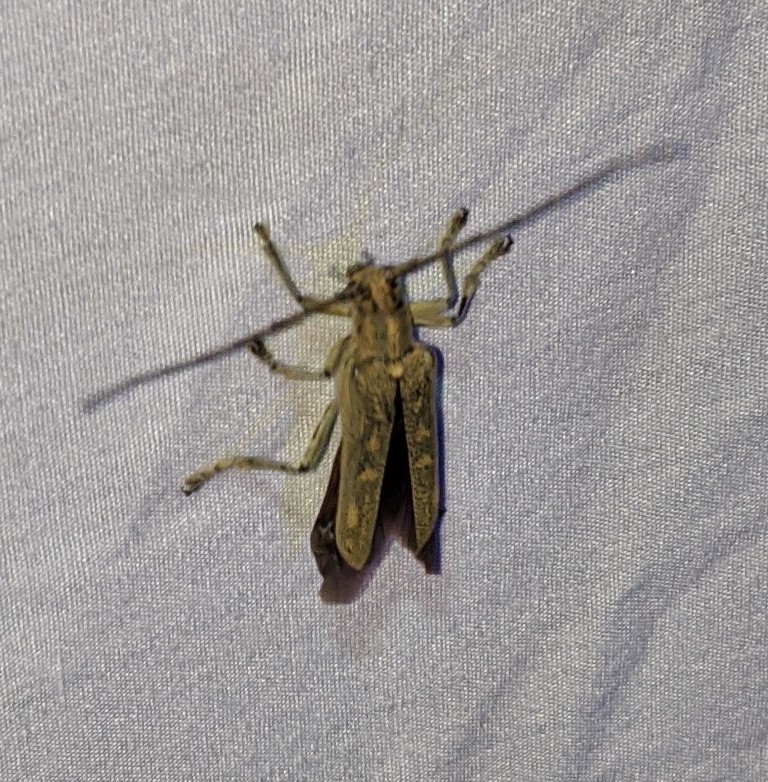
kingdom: Animalia
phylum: Arthropoda
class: Insecta
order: Coleoptera
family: Cerambycidae
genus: Saperda
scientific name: Saperda calcarata
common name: Poplar borer
